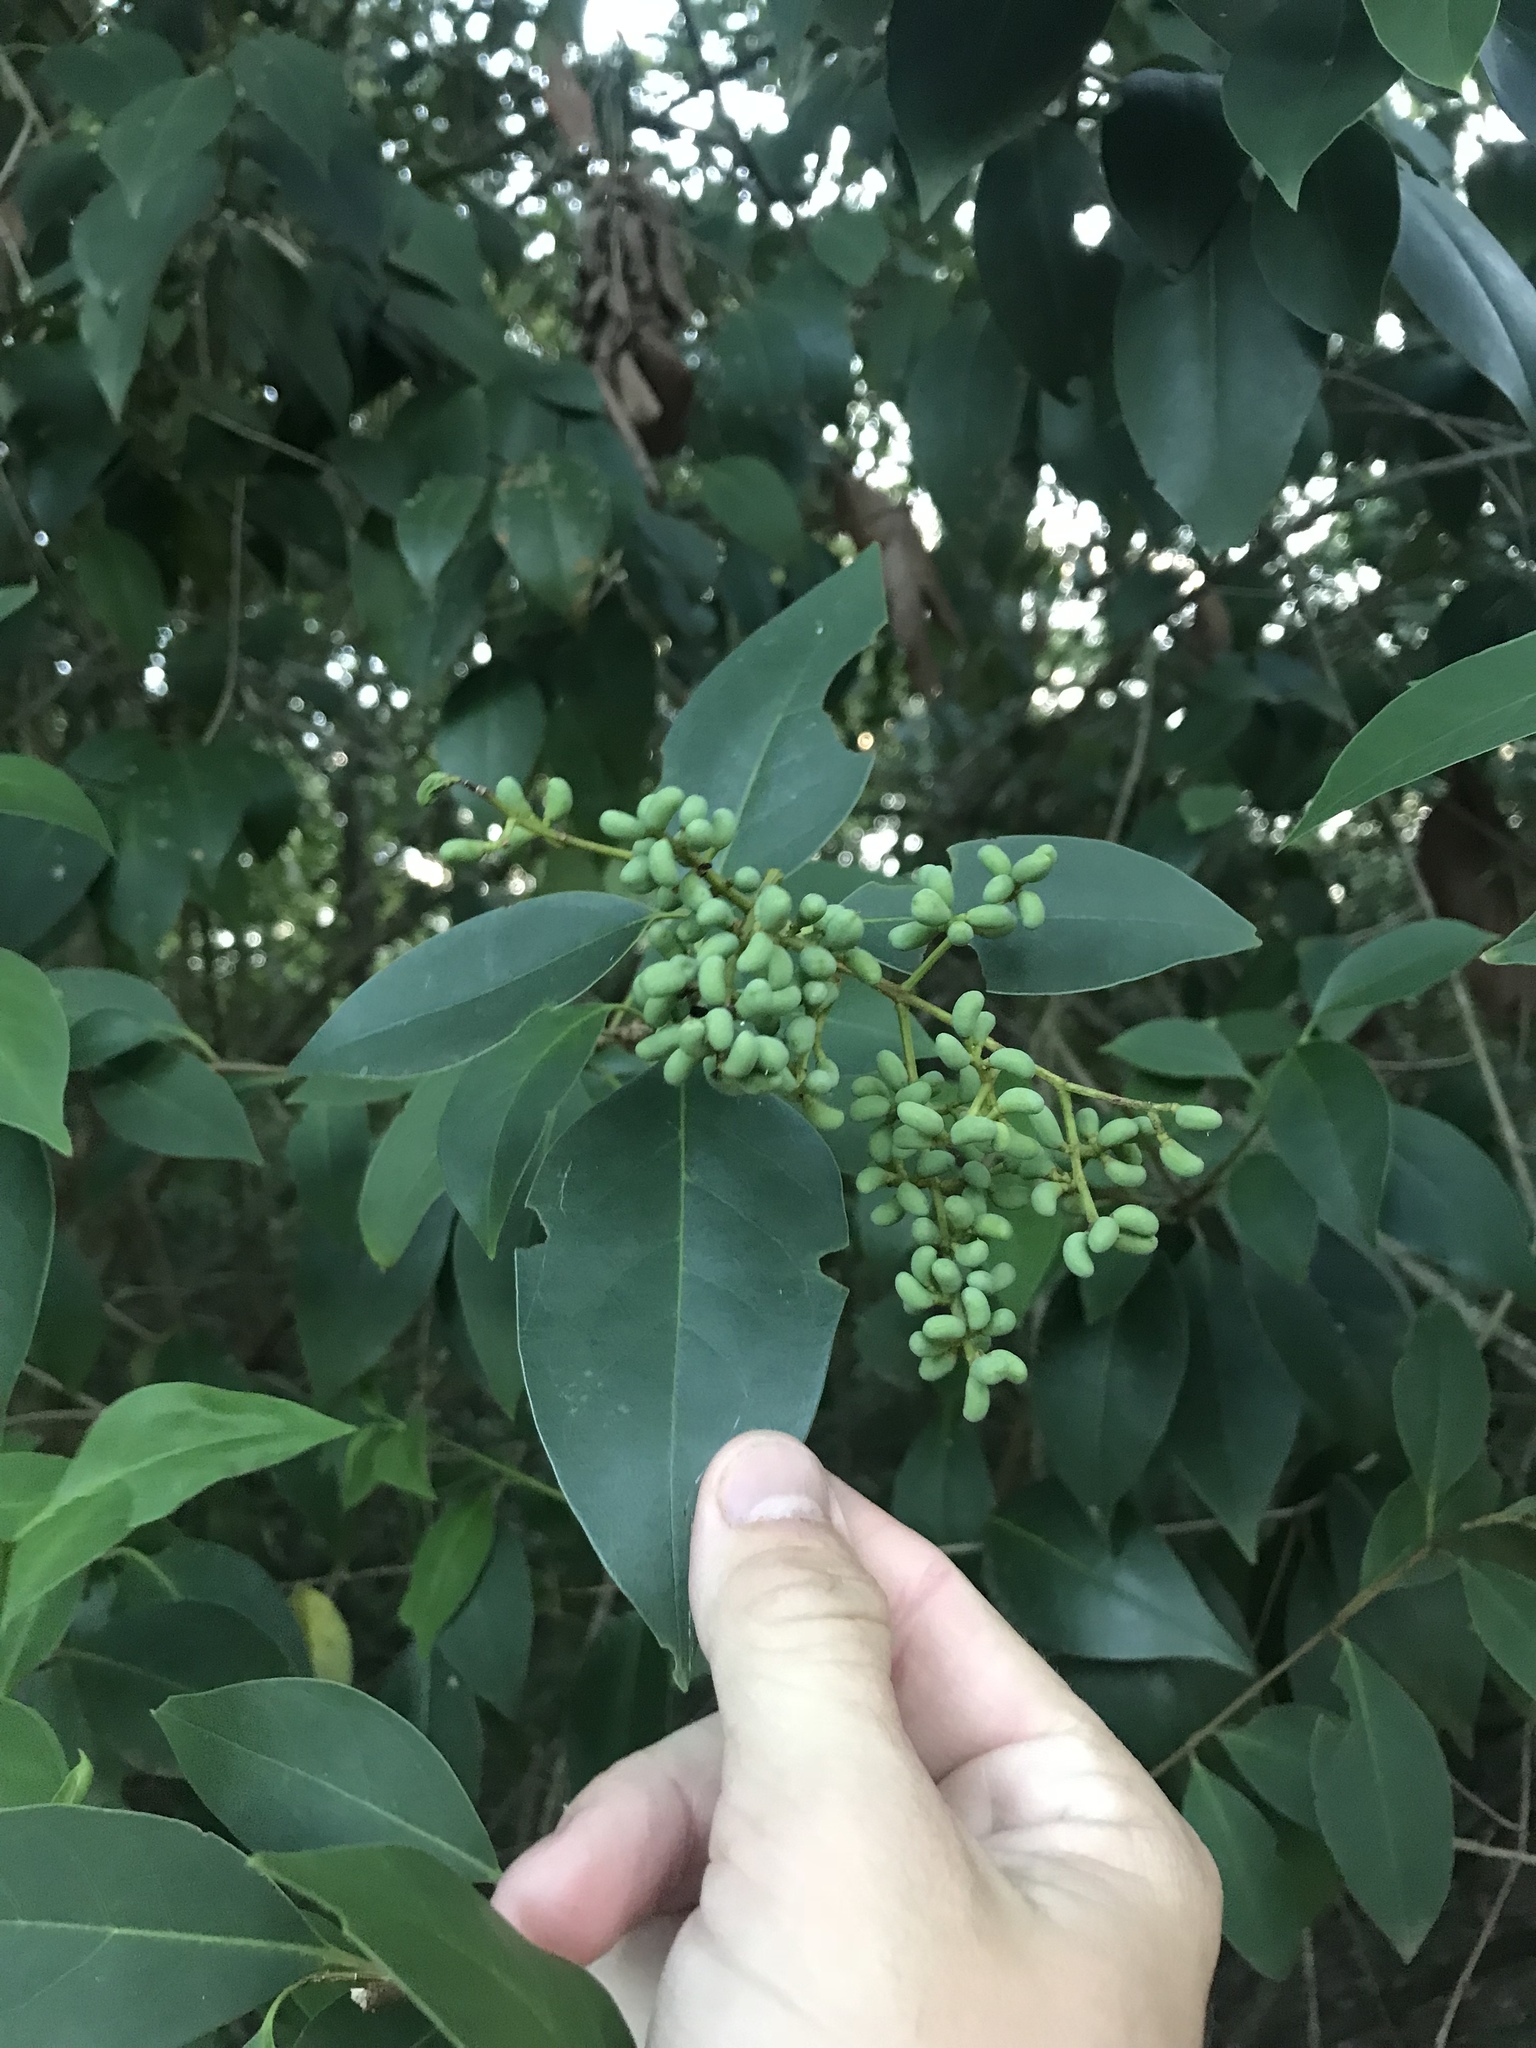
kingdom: Plantae
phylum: Tracheophyta
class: Magnoliopsida
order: Lamiales
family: Oleaceae
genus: Ligustrum
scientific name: Ligustrum lucidum
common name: Glossy privet
